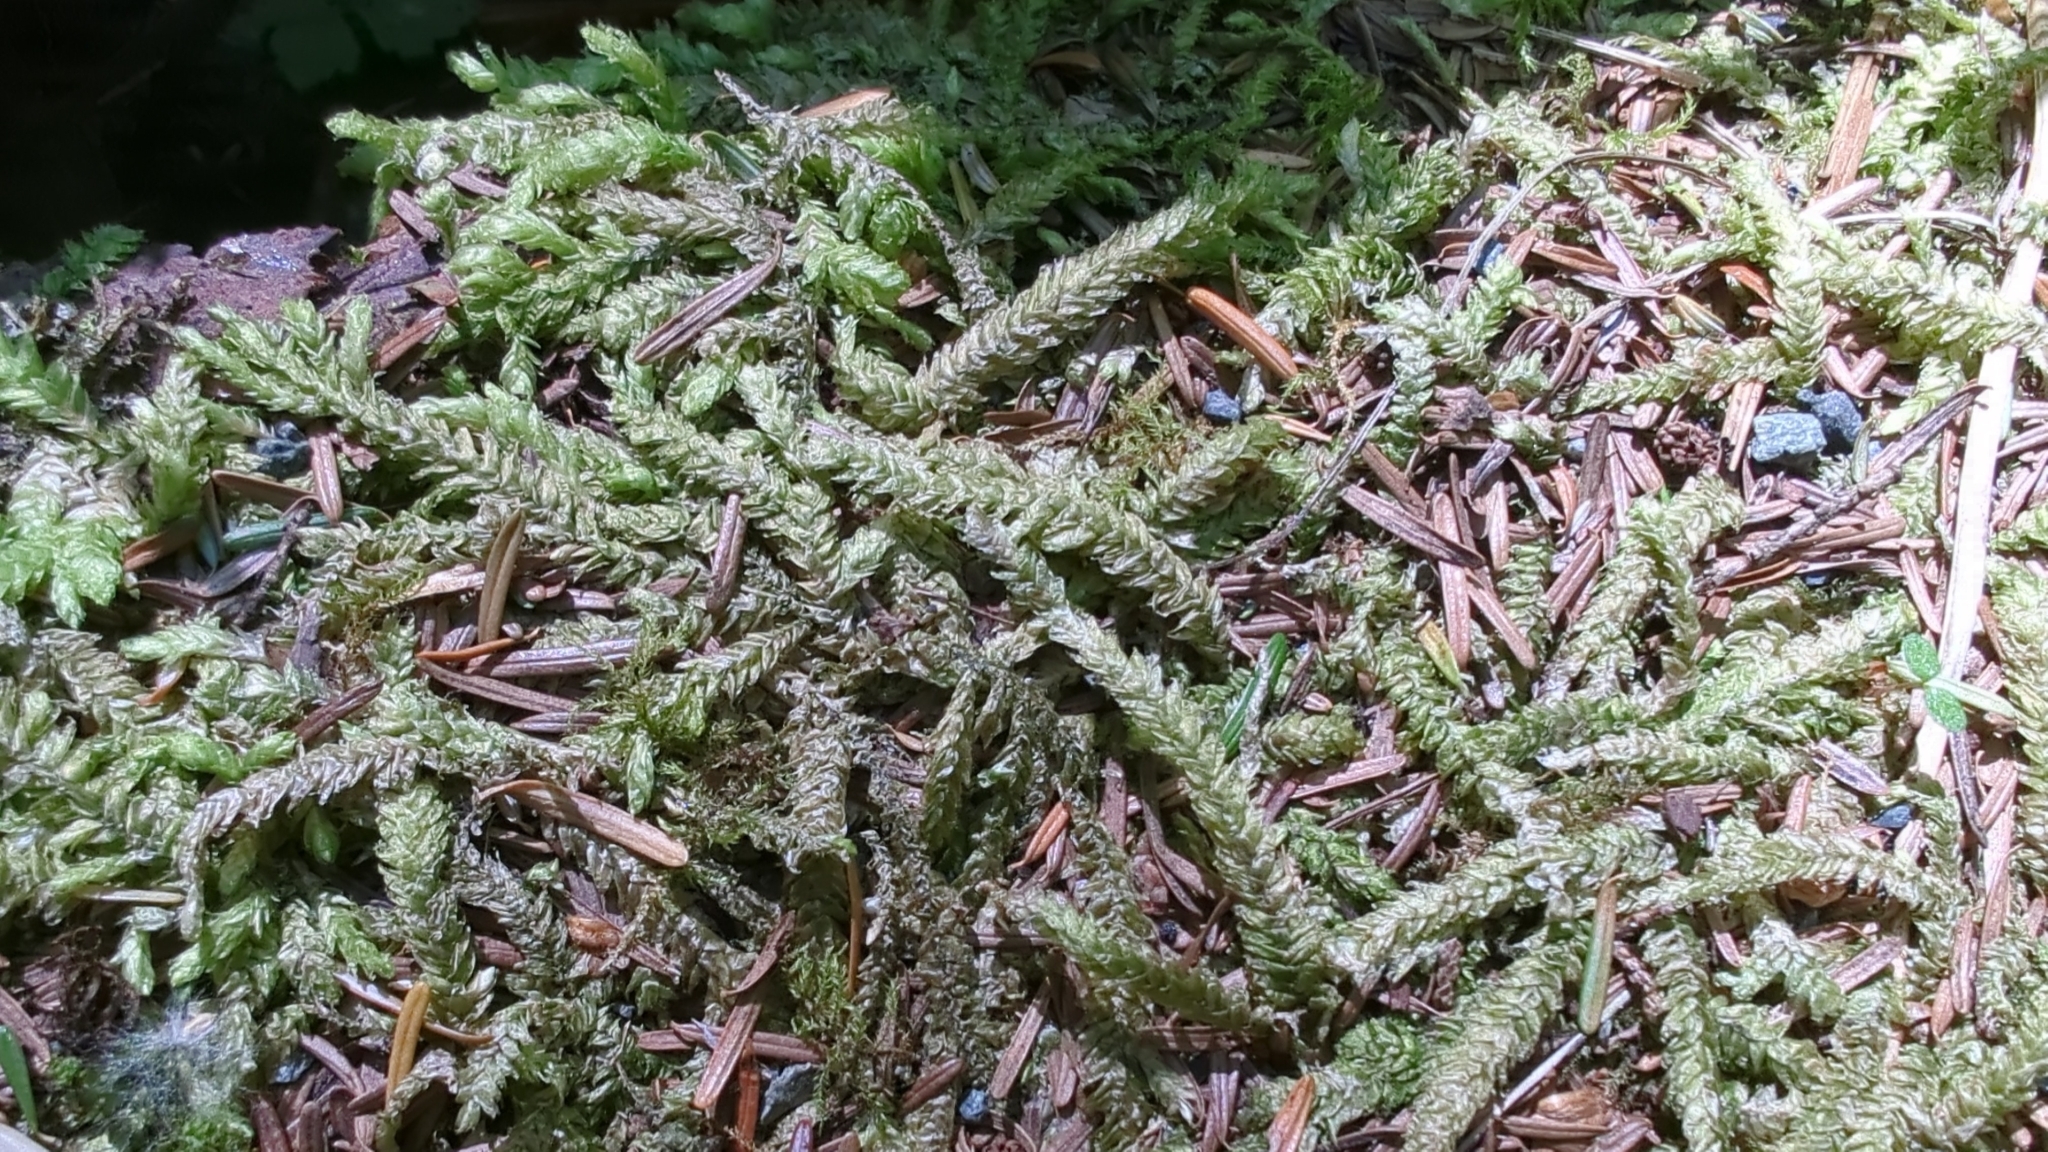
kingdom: Plantae
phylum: Bryophyta
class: Bryopsida
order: Hypnales
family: Plagiotheciaceae
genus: Plagiothecium
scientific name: Plagiothecium undulatum
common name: Waved silk-moss
